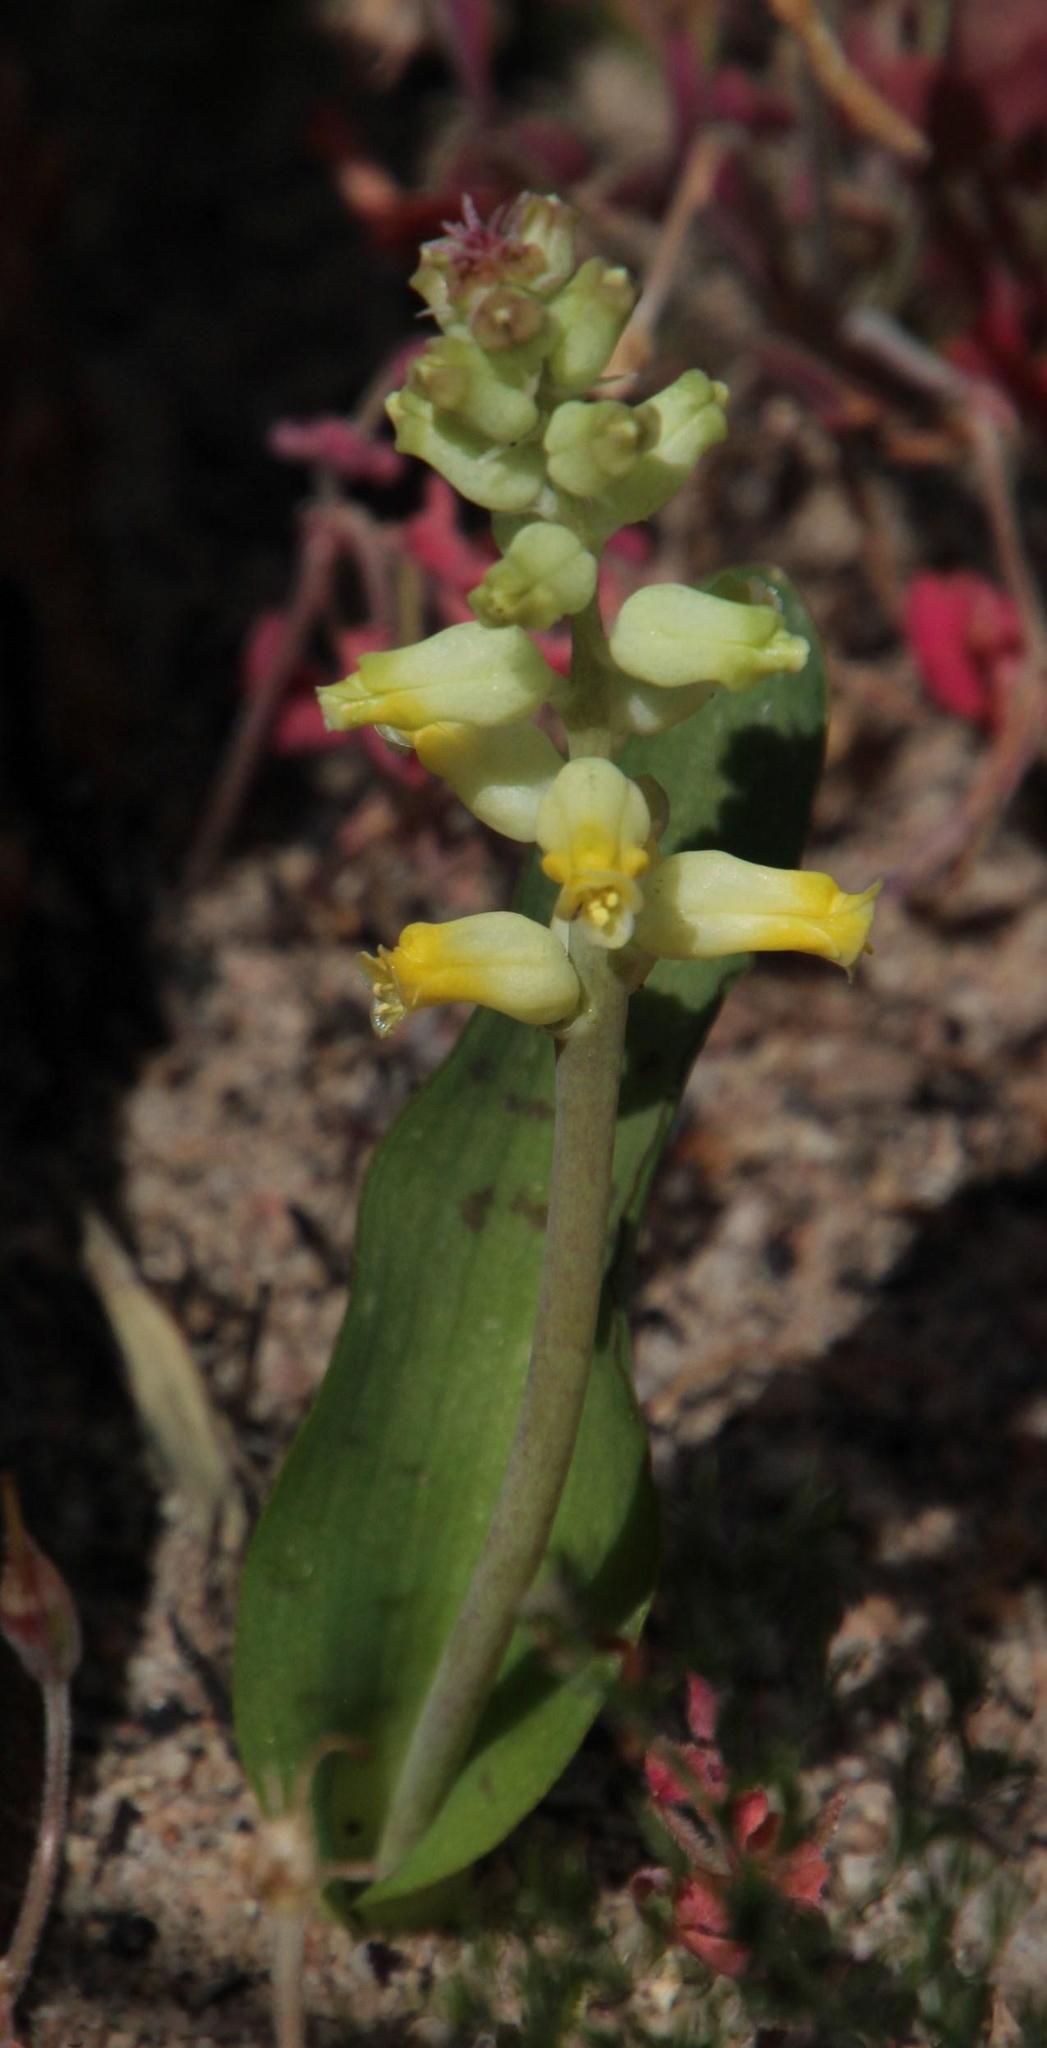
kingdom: Plantae
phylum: Tracheophyta
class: Liliopsida
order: Asparagales
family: Asparagaceae
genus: Lachenalia
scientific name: Lachenalia lutea
